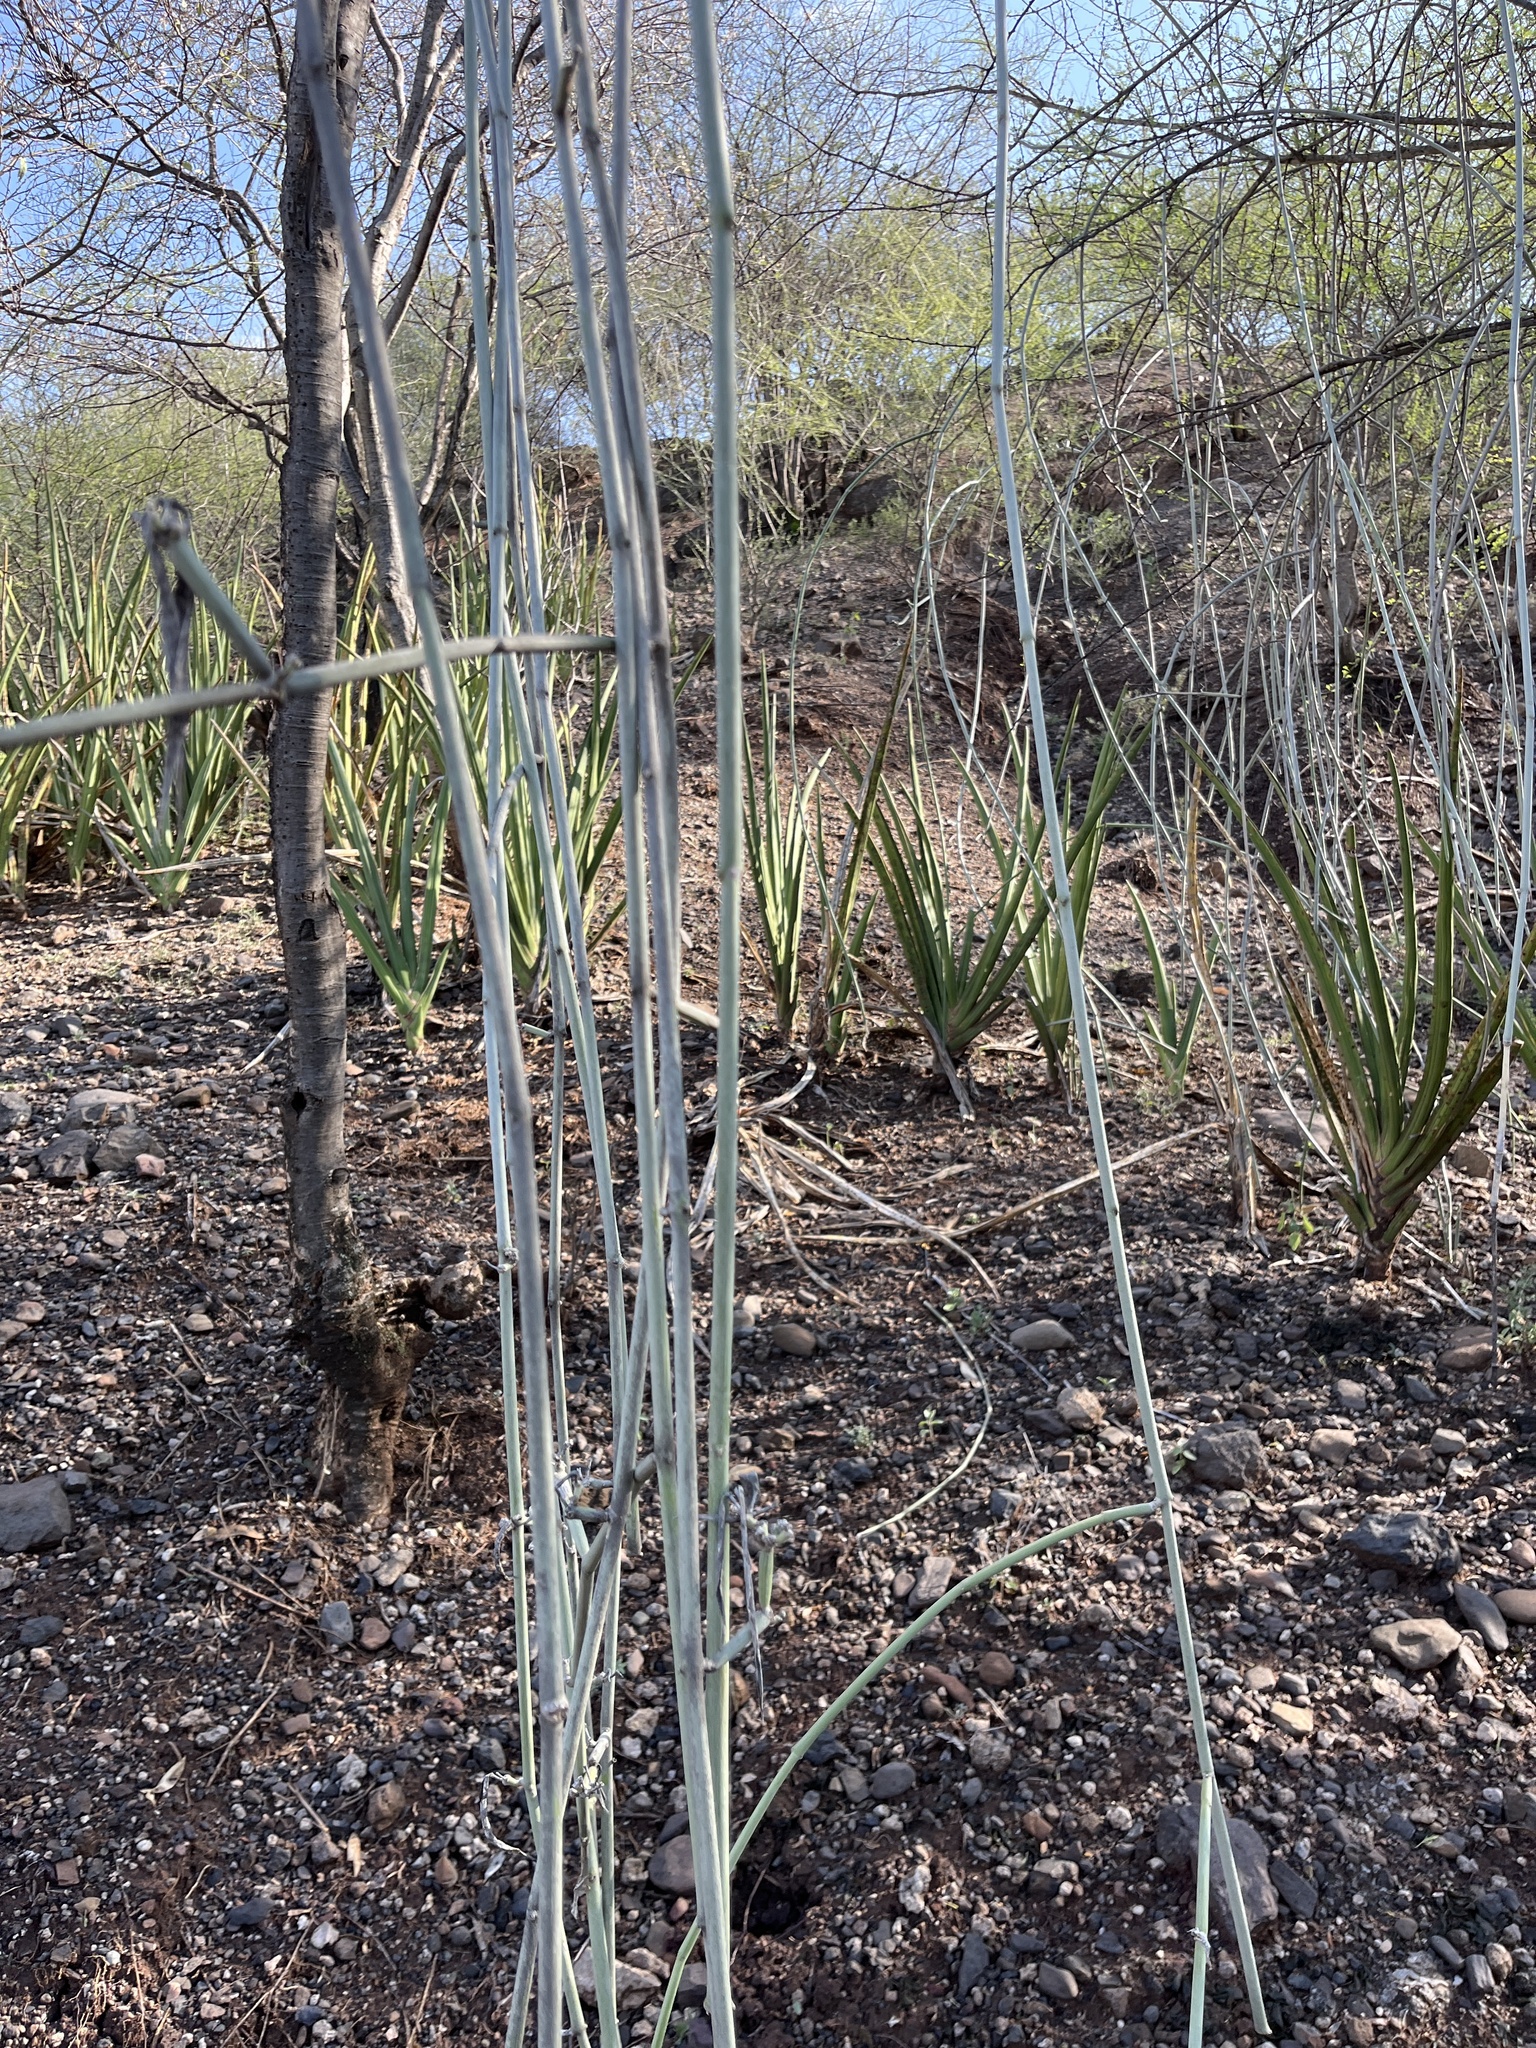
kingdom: Plantae
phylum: Tracheophyta
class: Magnoliopsida
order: Gentianales
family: Apocynaceae
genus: Cynanchum
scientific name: Cynanchum viminale
